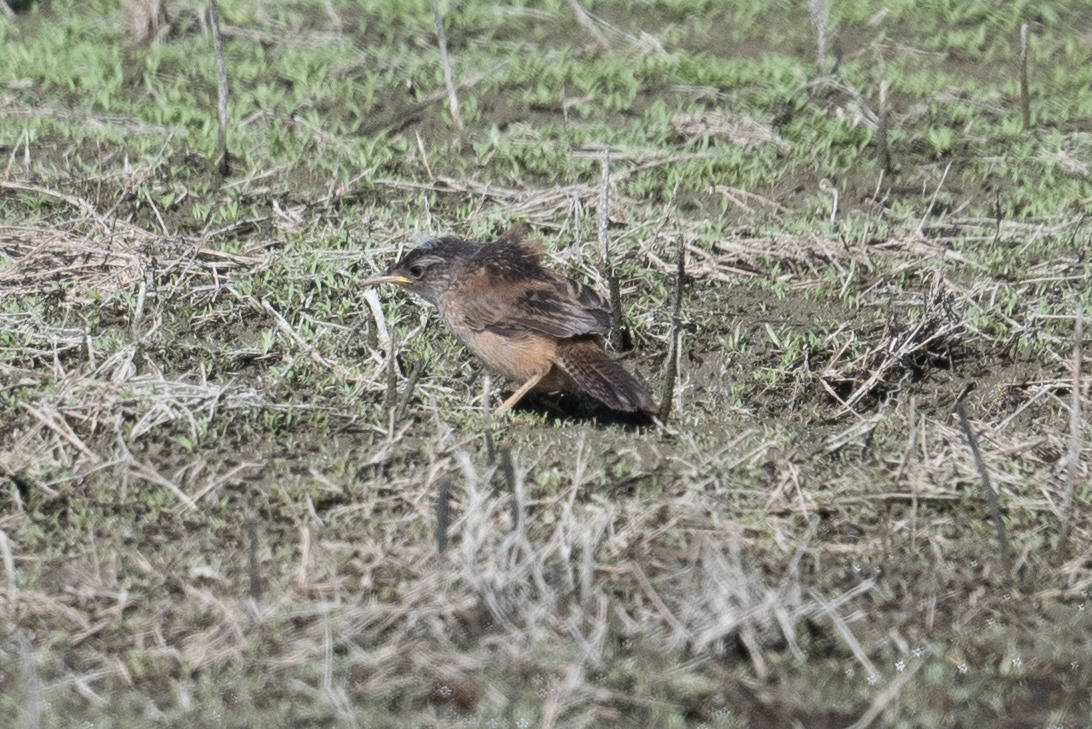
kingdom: Animalia
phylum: Chordata
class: Aves
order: Passeriformes
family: Passerellidae
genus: Melospiza
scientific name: Melospiza melodia
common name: Song sparrow
